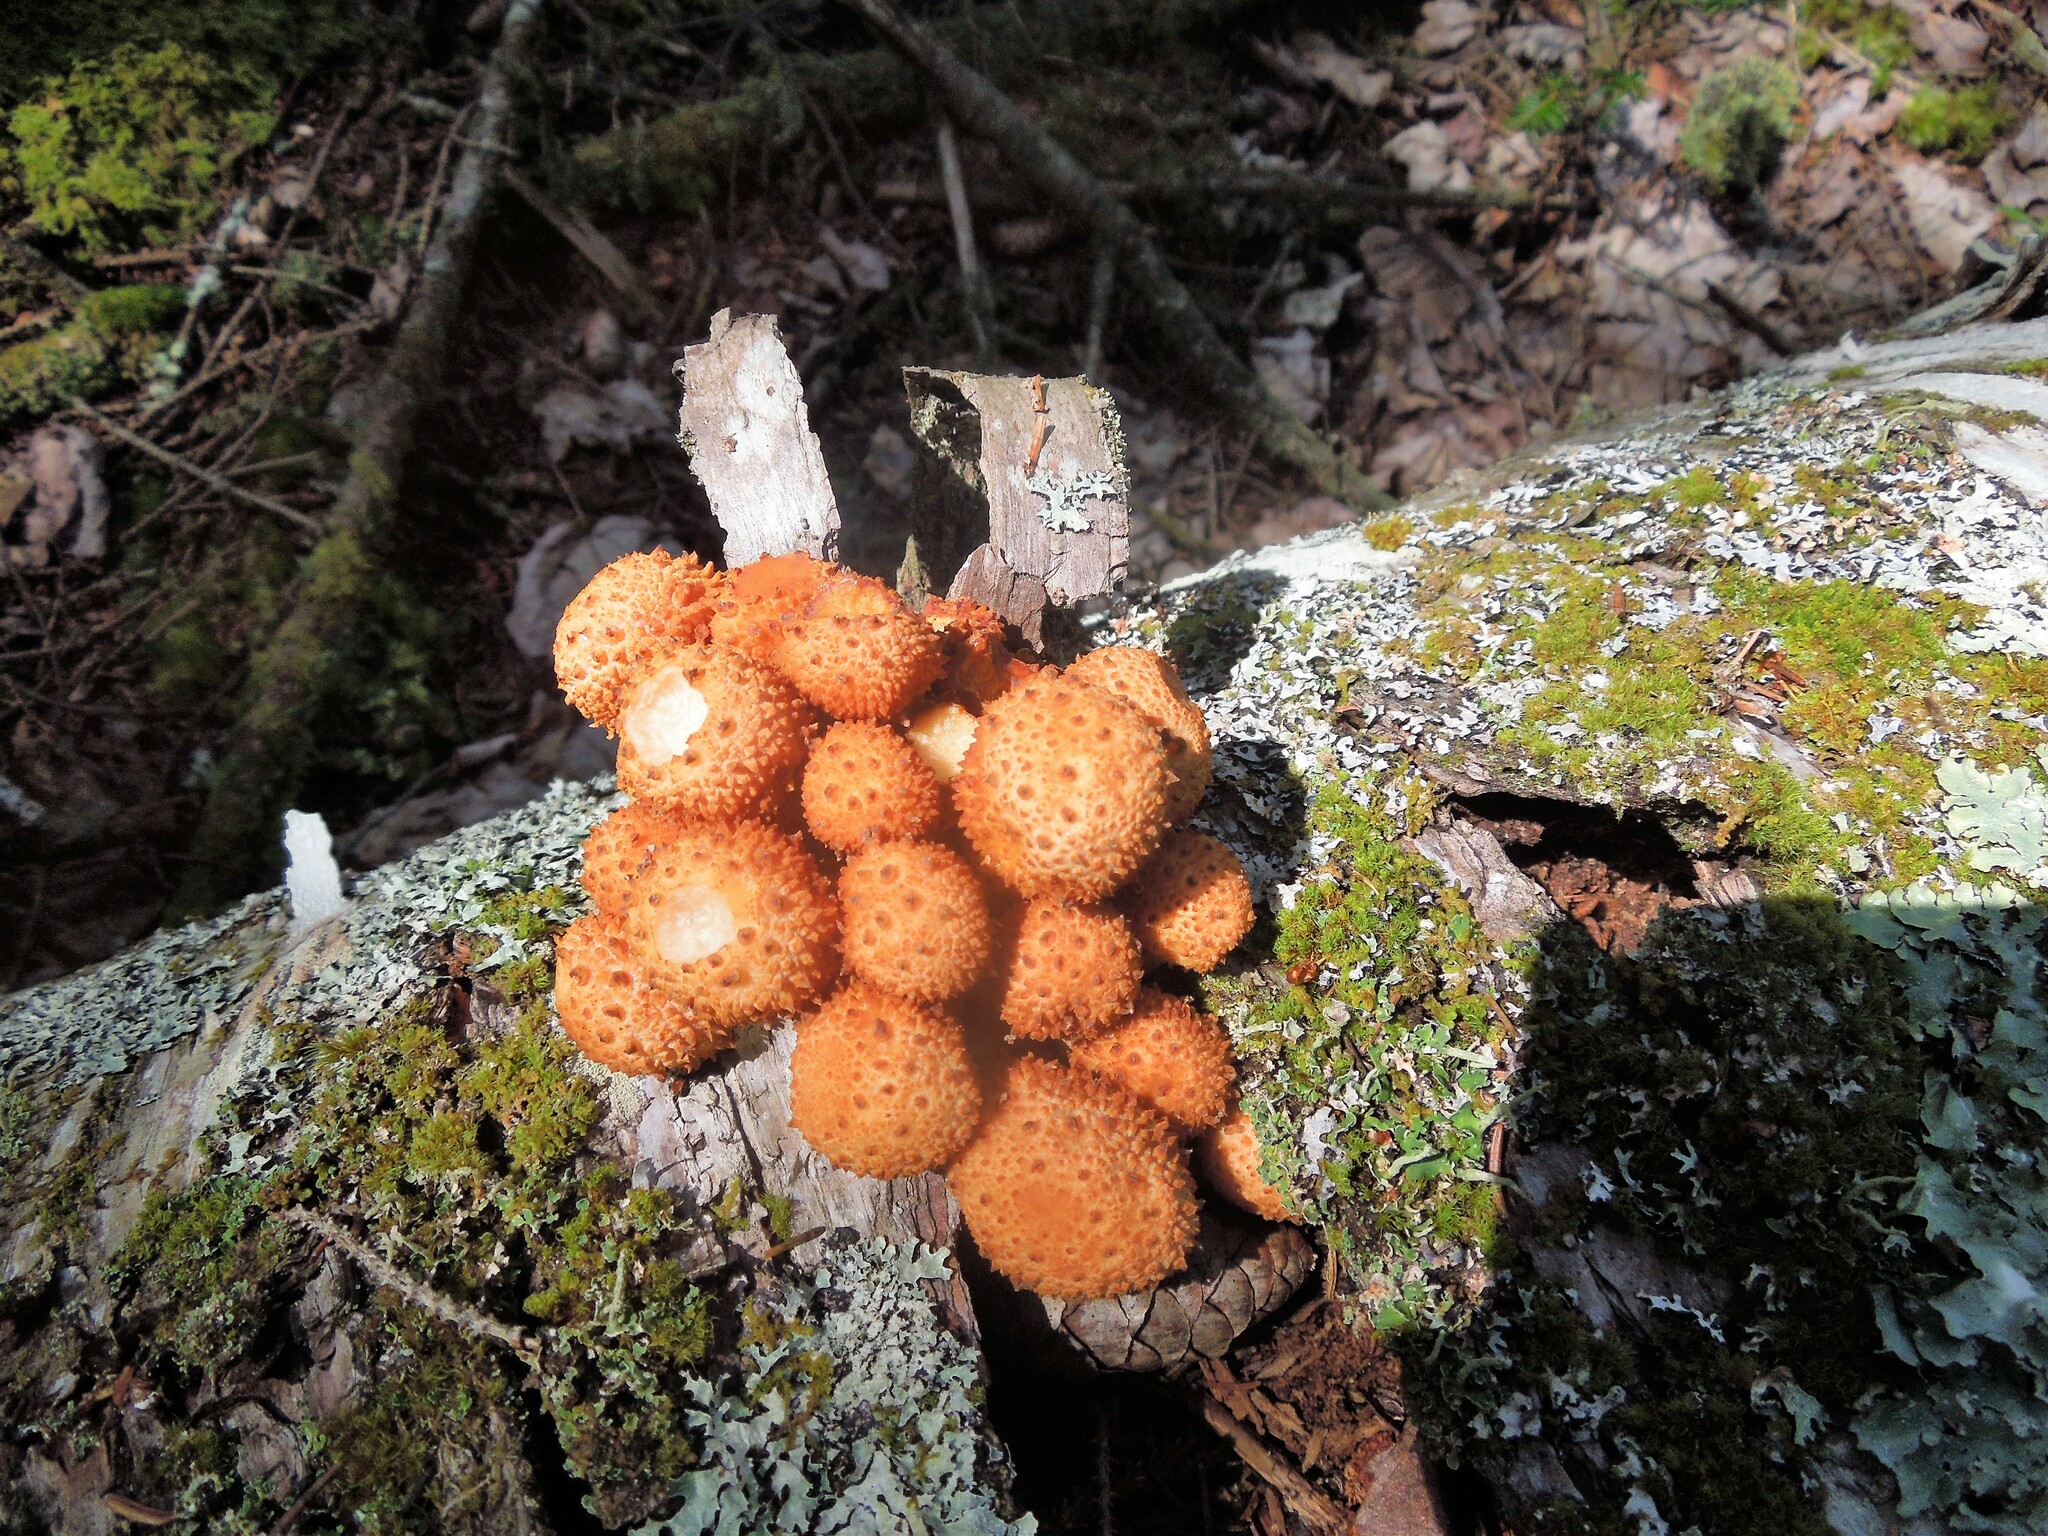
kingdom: Fungi
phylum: Basidiomycota
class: Agaricomycetes
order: Agaricales
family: Strophariaceae
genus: Pholiota
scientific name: Pholiota
